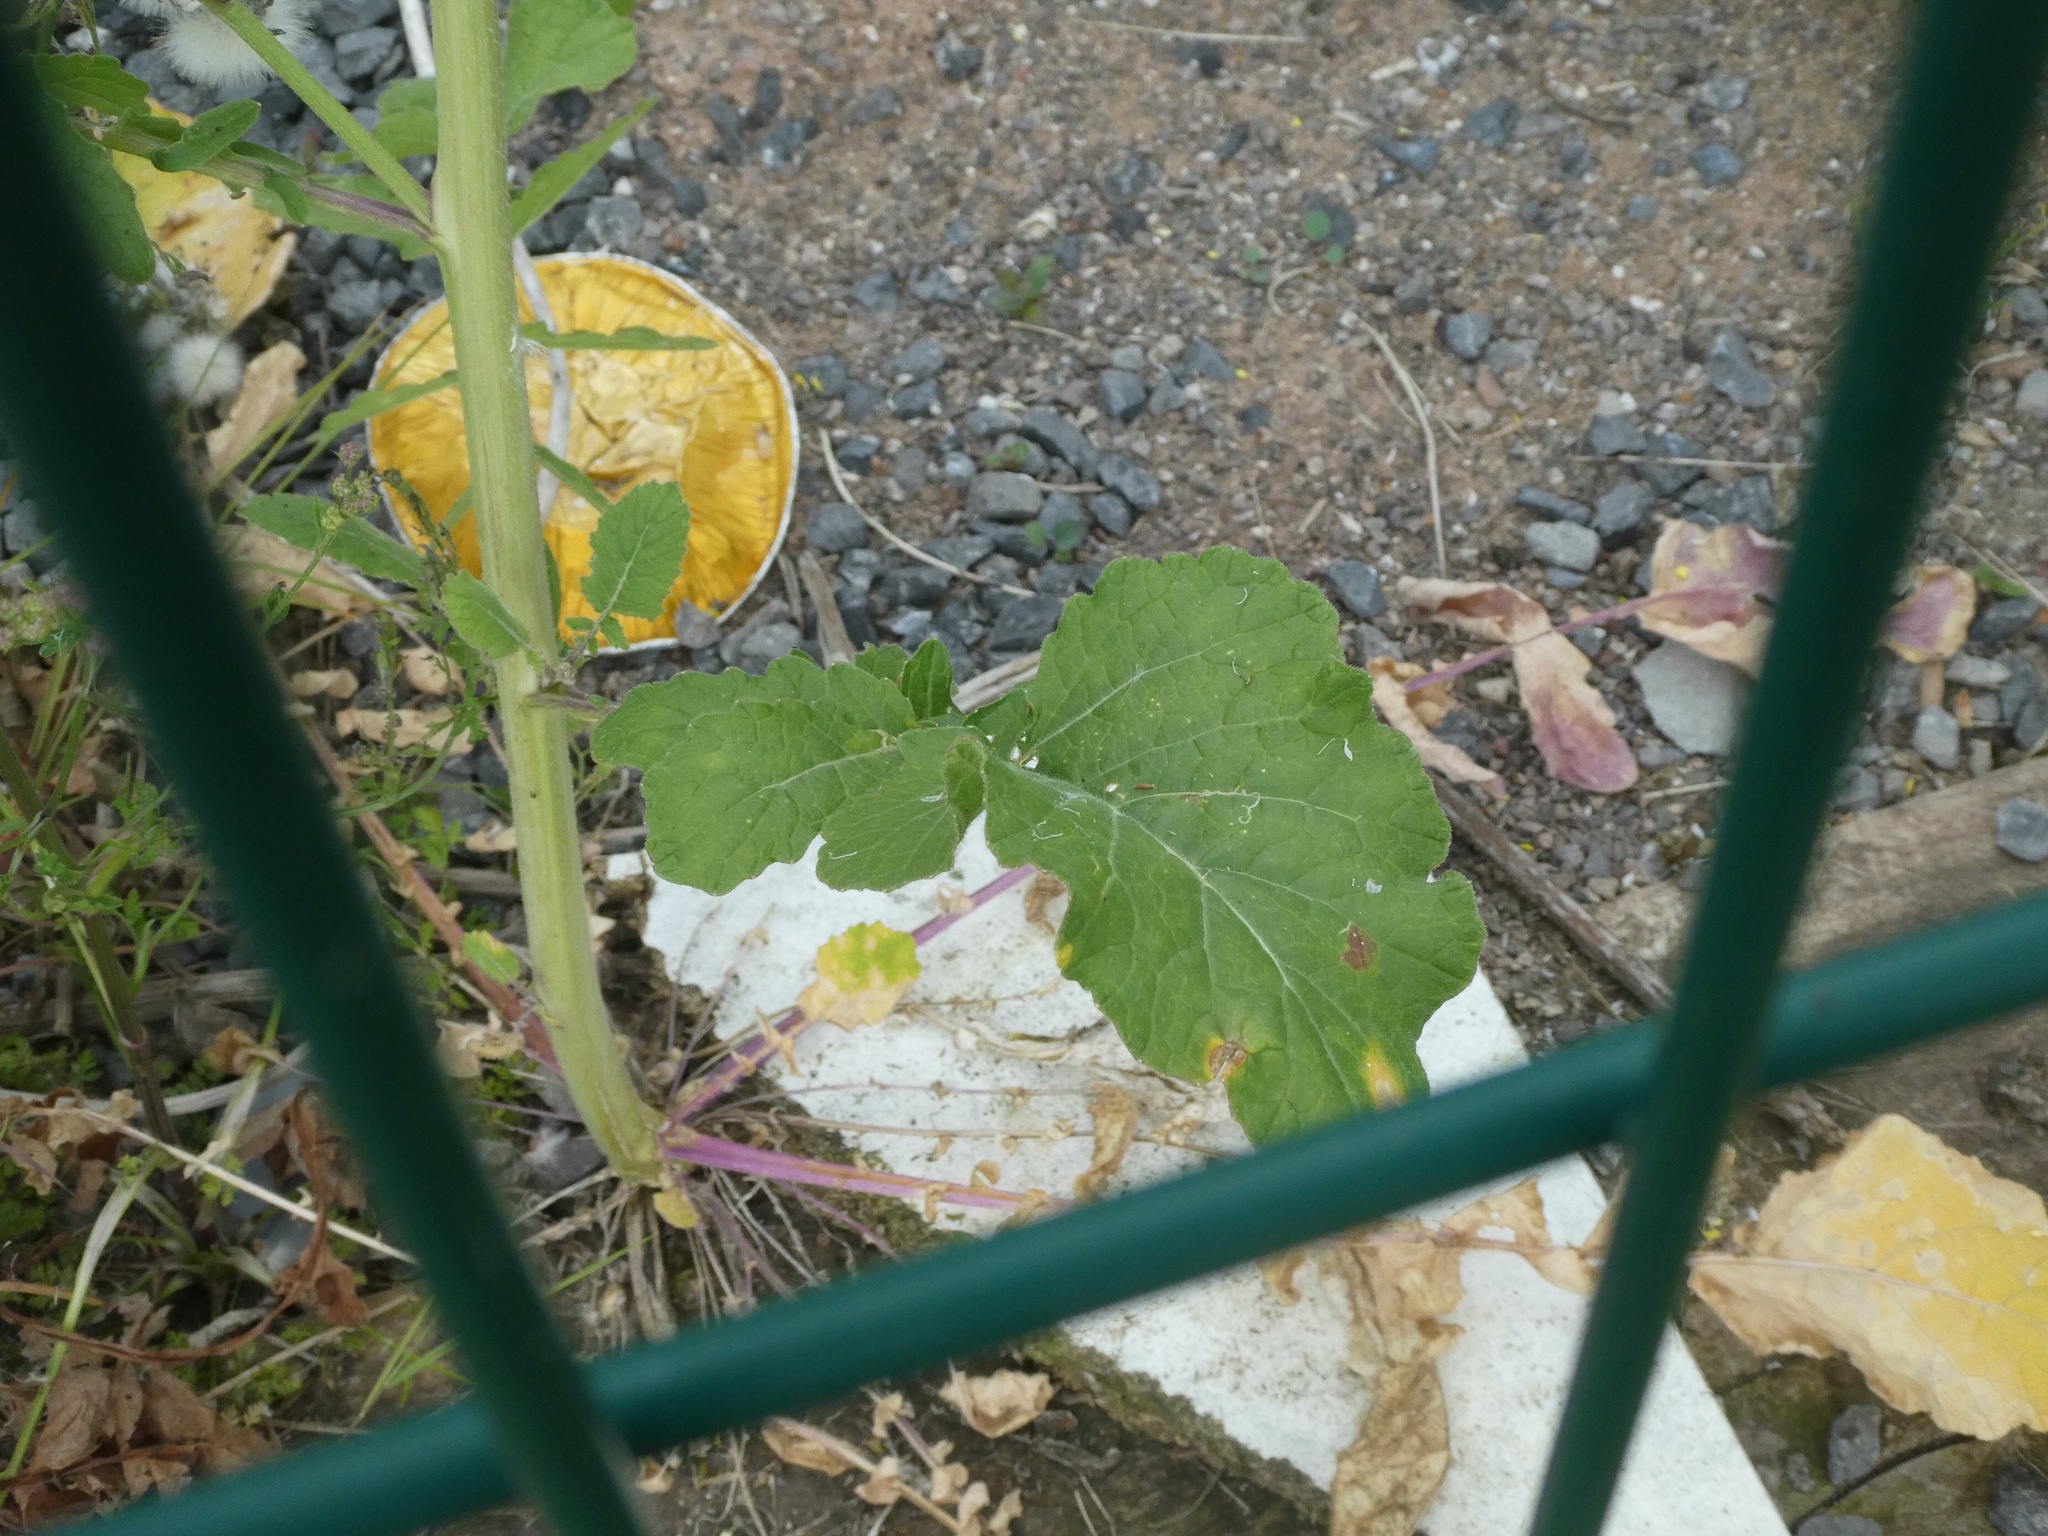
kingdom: Plantae
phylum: Tracheophyta
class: Magnoliopsida
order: Brassicales
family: Brassicaceae
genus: Hirschfeldia
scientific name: Hirschfeldia incana
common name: Hoary mustard
